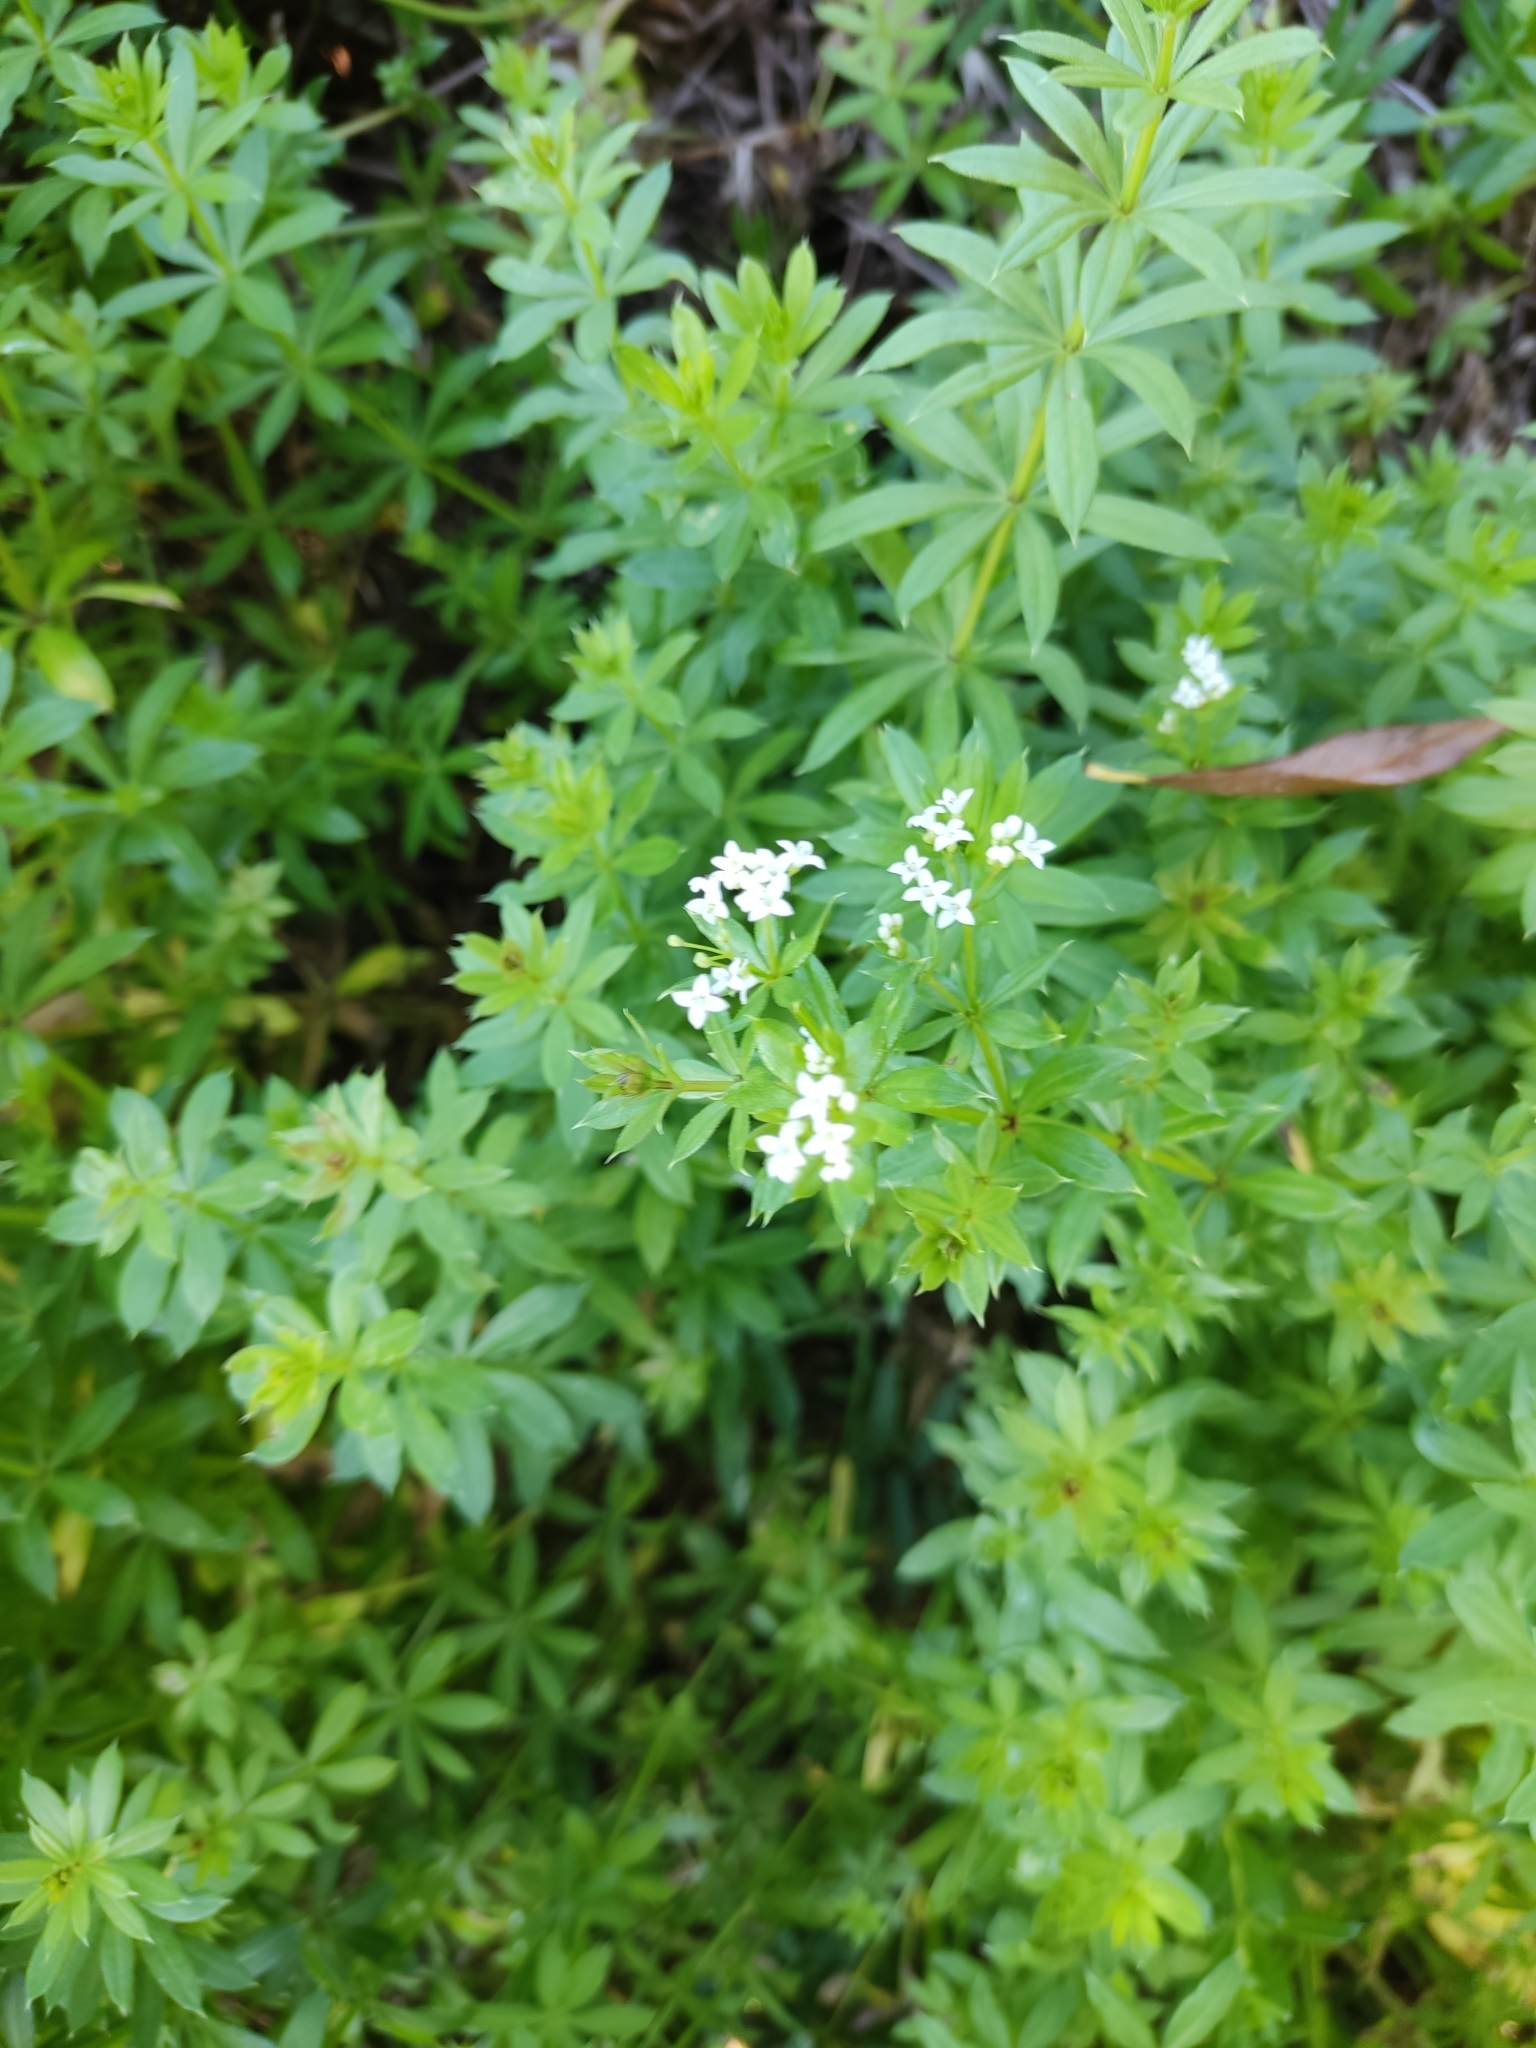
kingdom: Plantae
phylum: Tracheophyta
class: Magnoliopsida
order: Gentianales
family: Rubiaceae
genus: Galium
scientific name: Galium rivale
